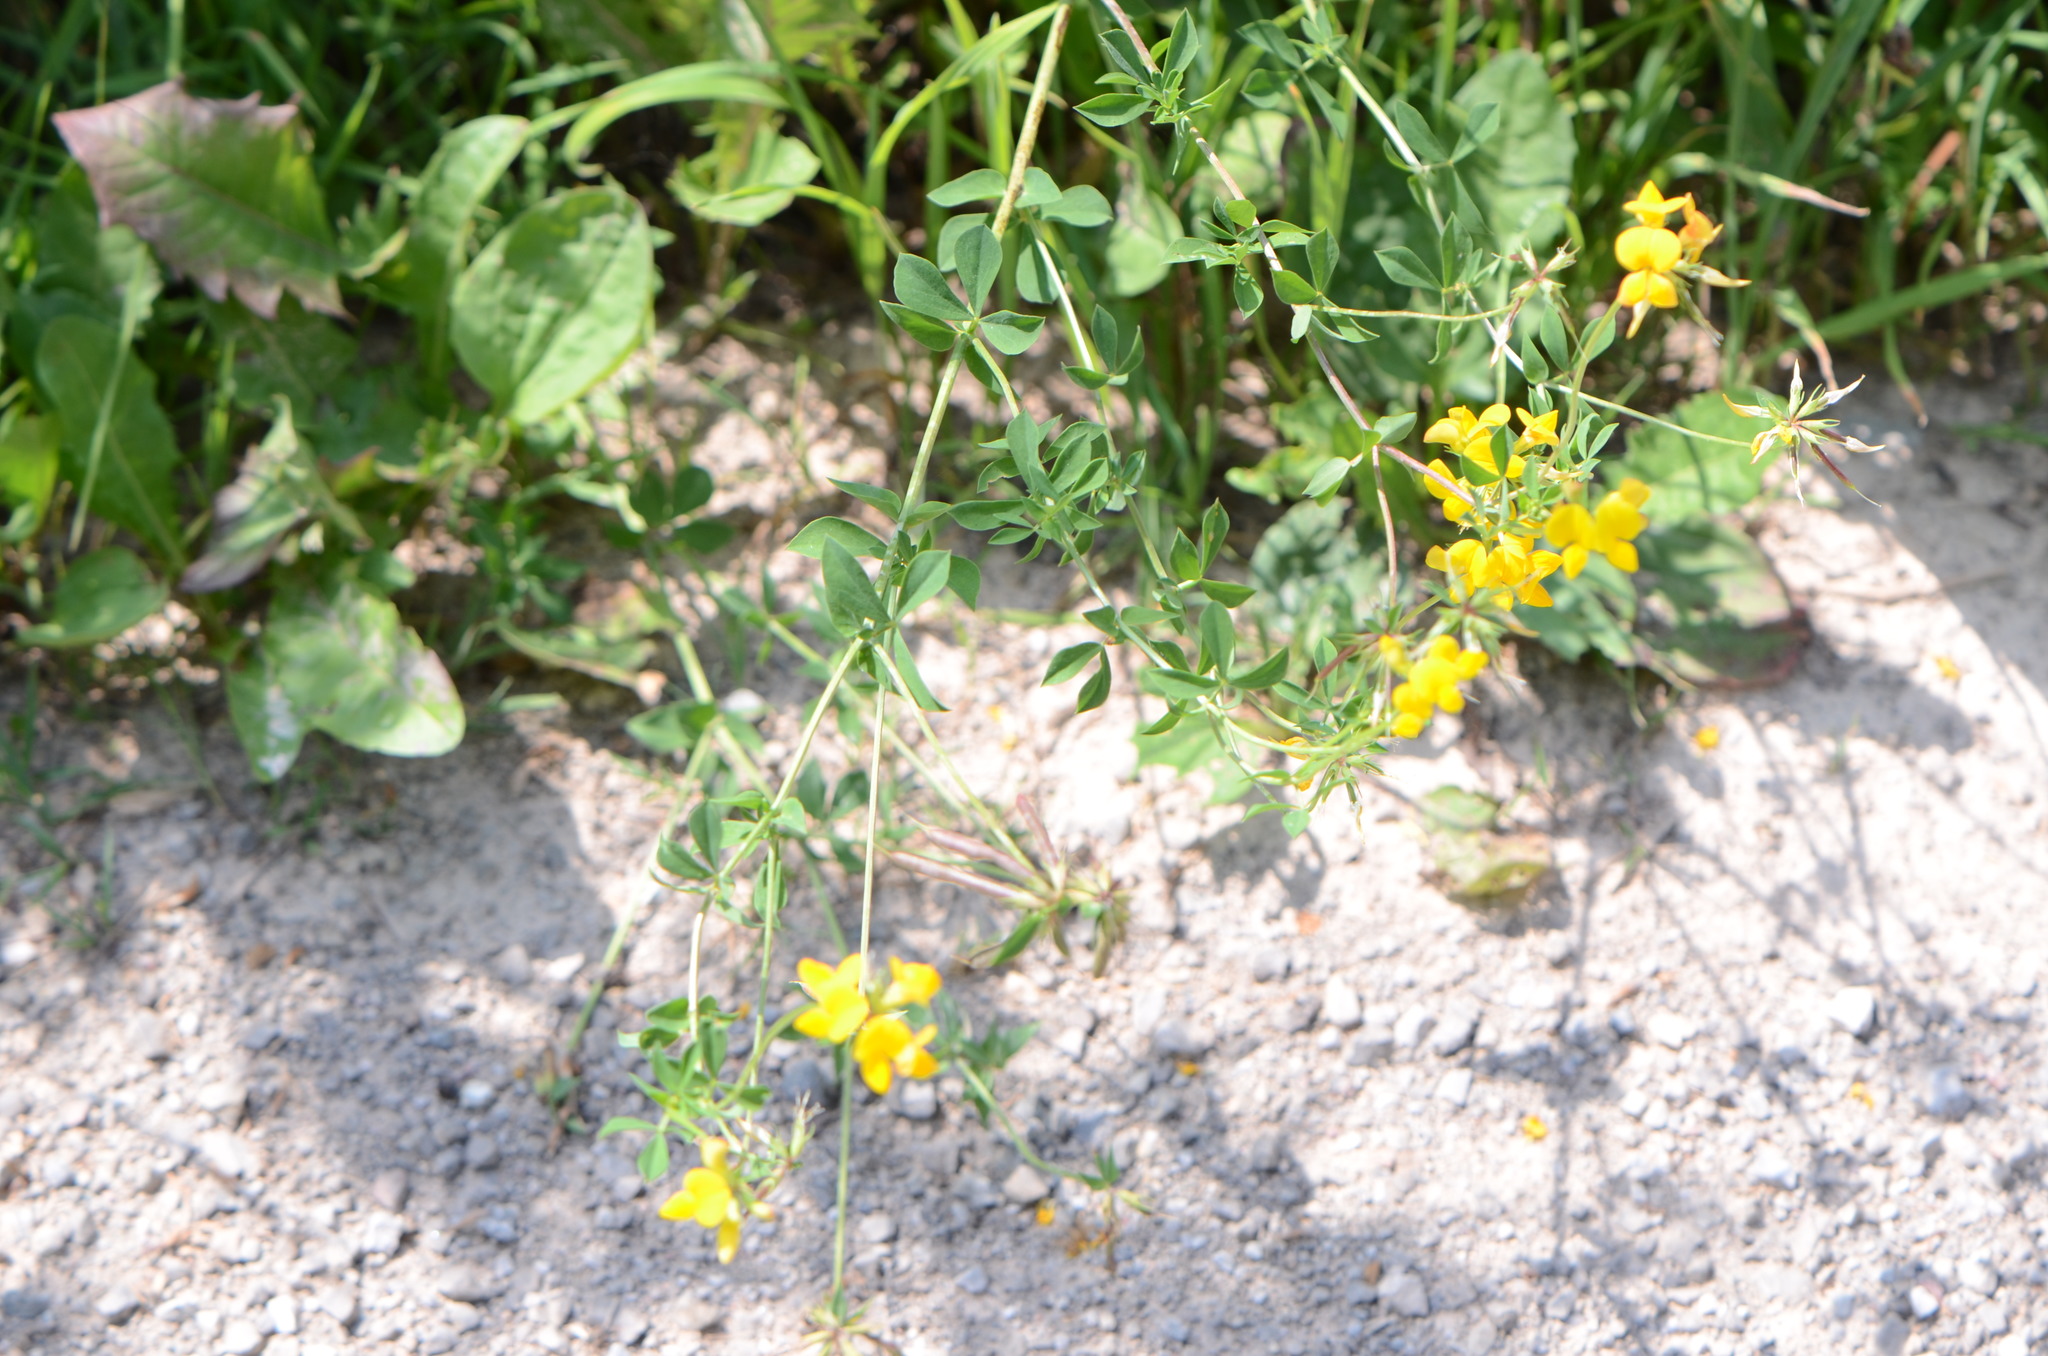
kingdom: Plantae
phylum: Tracheophyta
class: Magnoliopsida
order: Fabales
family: Fabaceae
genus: Lotus
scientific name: Lotus corniculatus
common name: Common bird's-foot-trefoil
